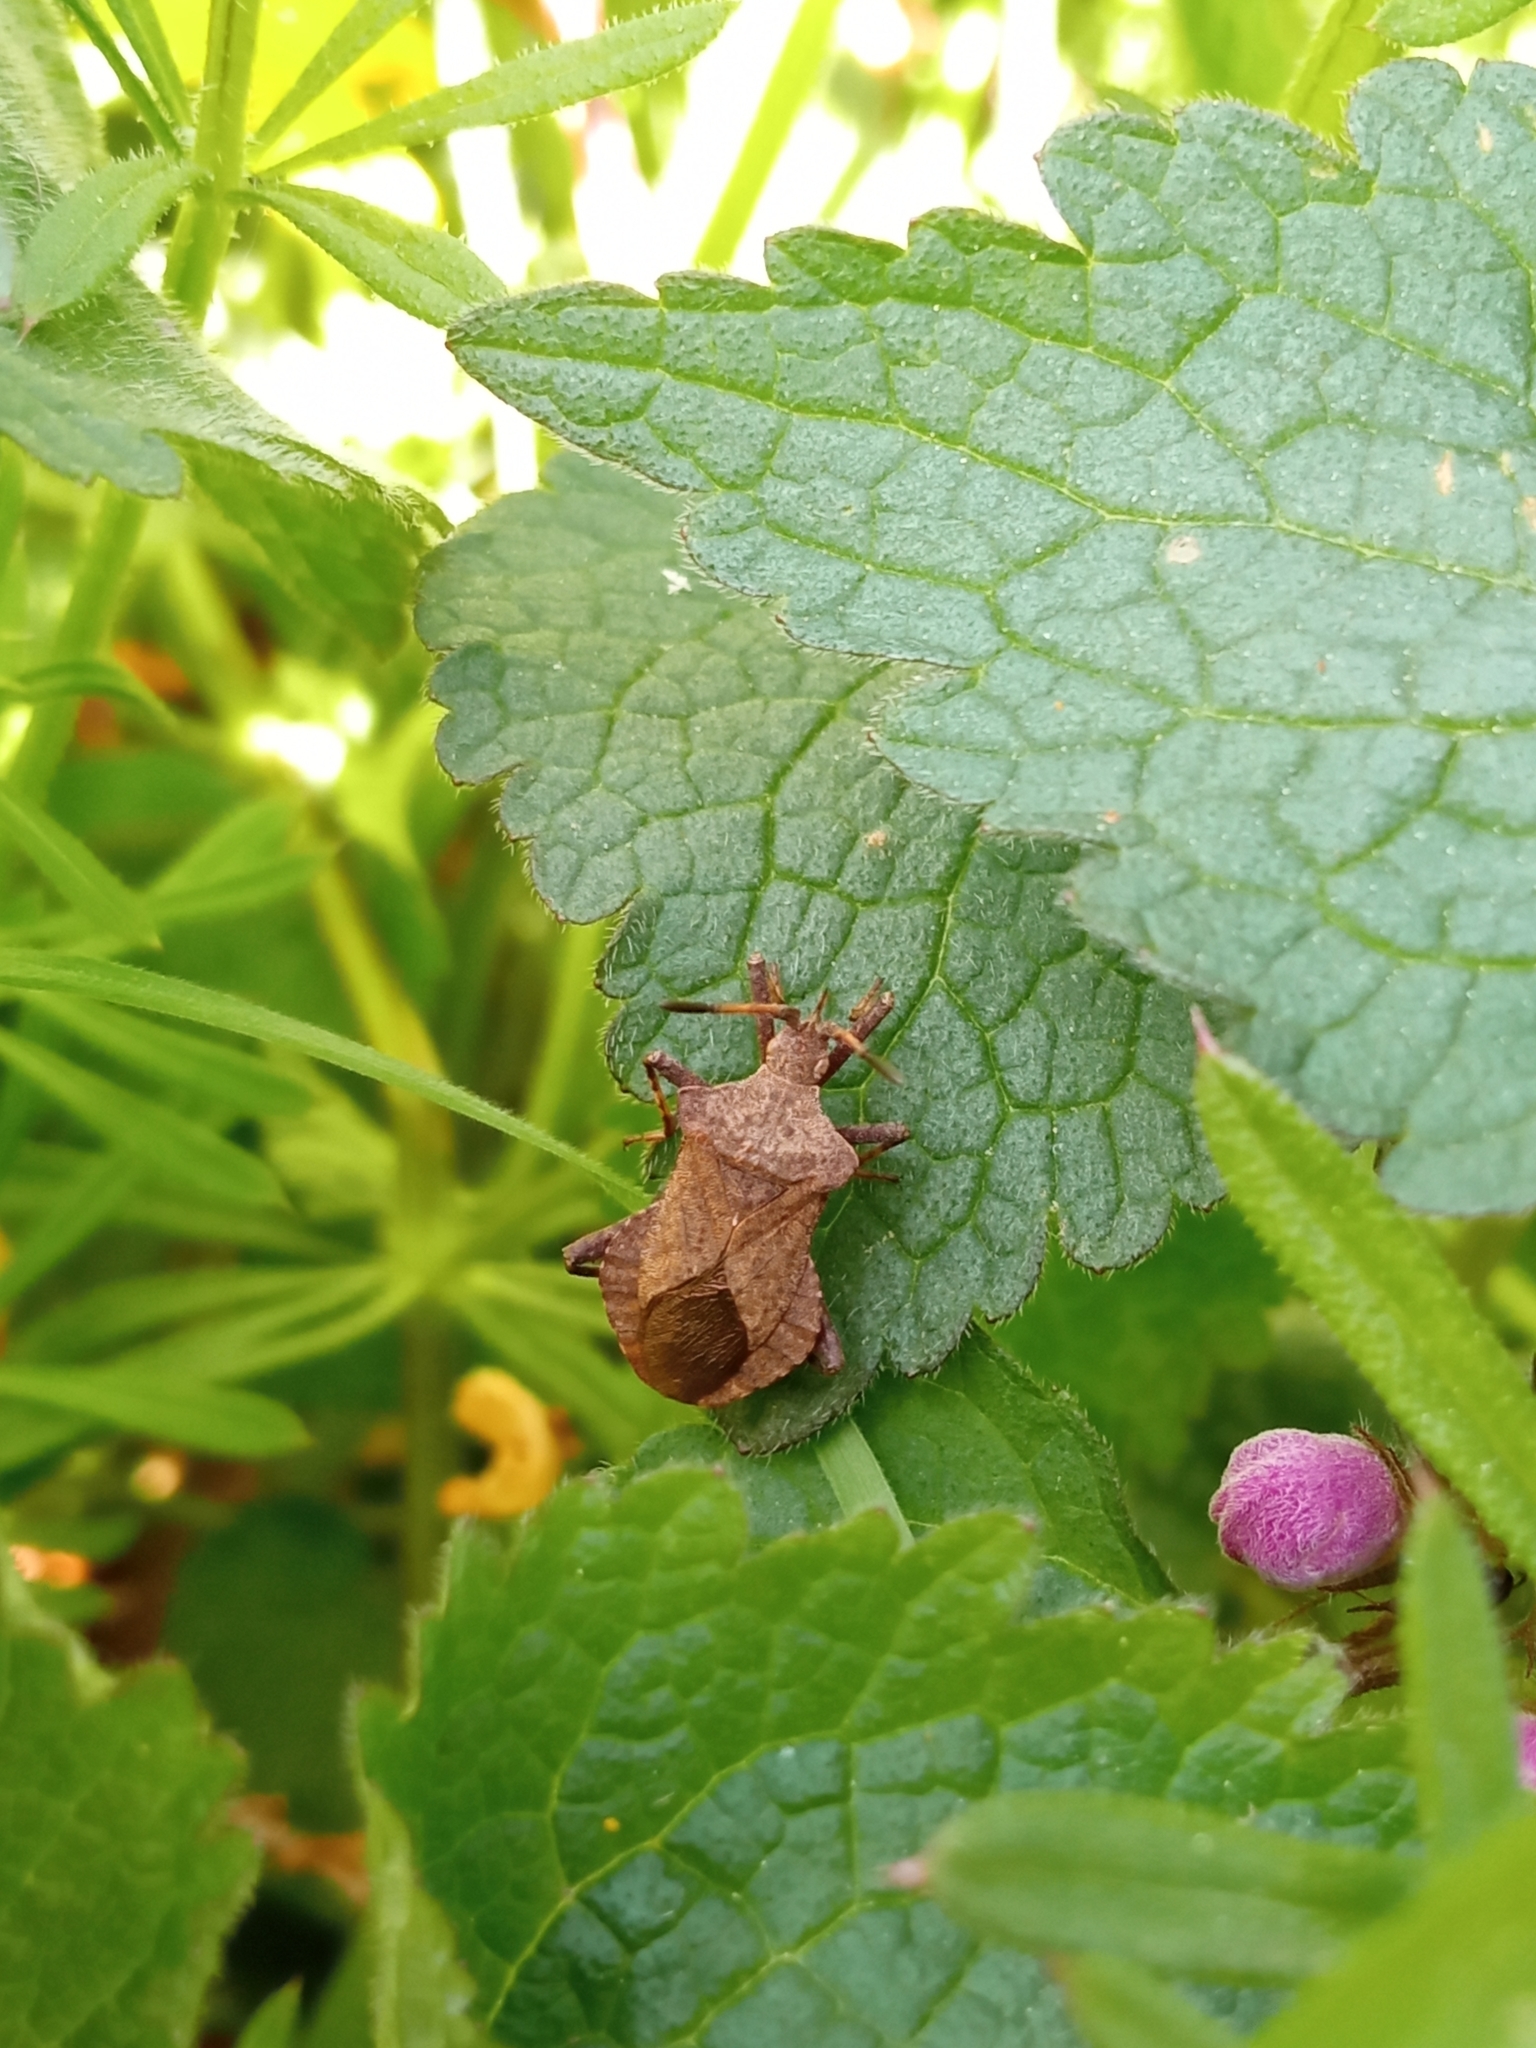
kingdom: Animalia
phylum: Arthropoda
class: Insecta
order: Hemiptera
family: Coreidae
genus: Coreus
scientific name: Coreus marginatus
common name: Dock bug
